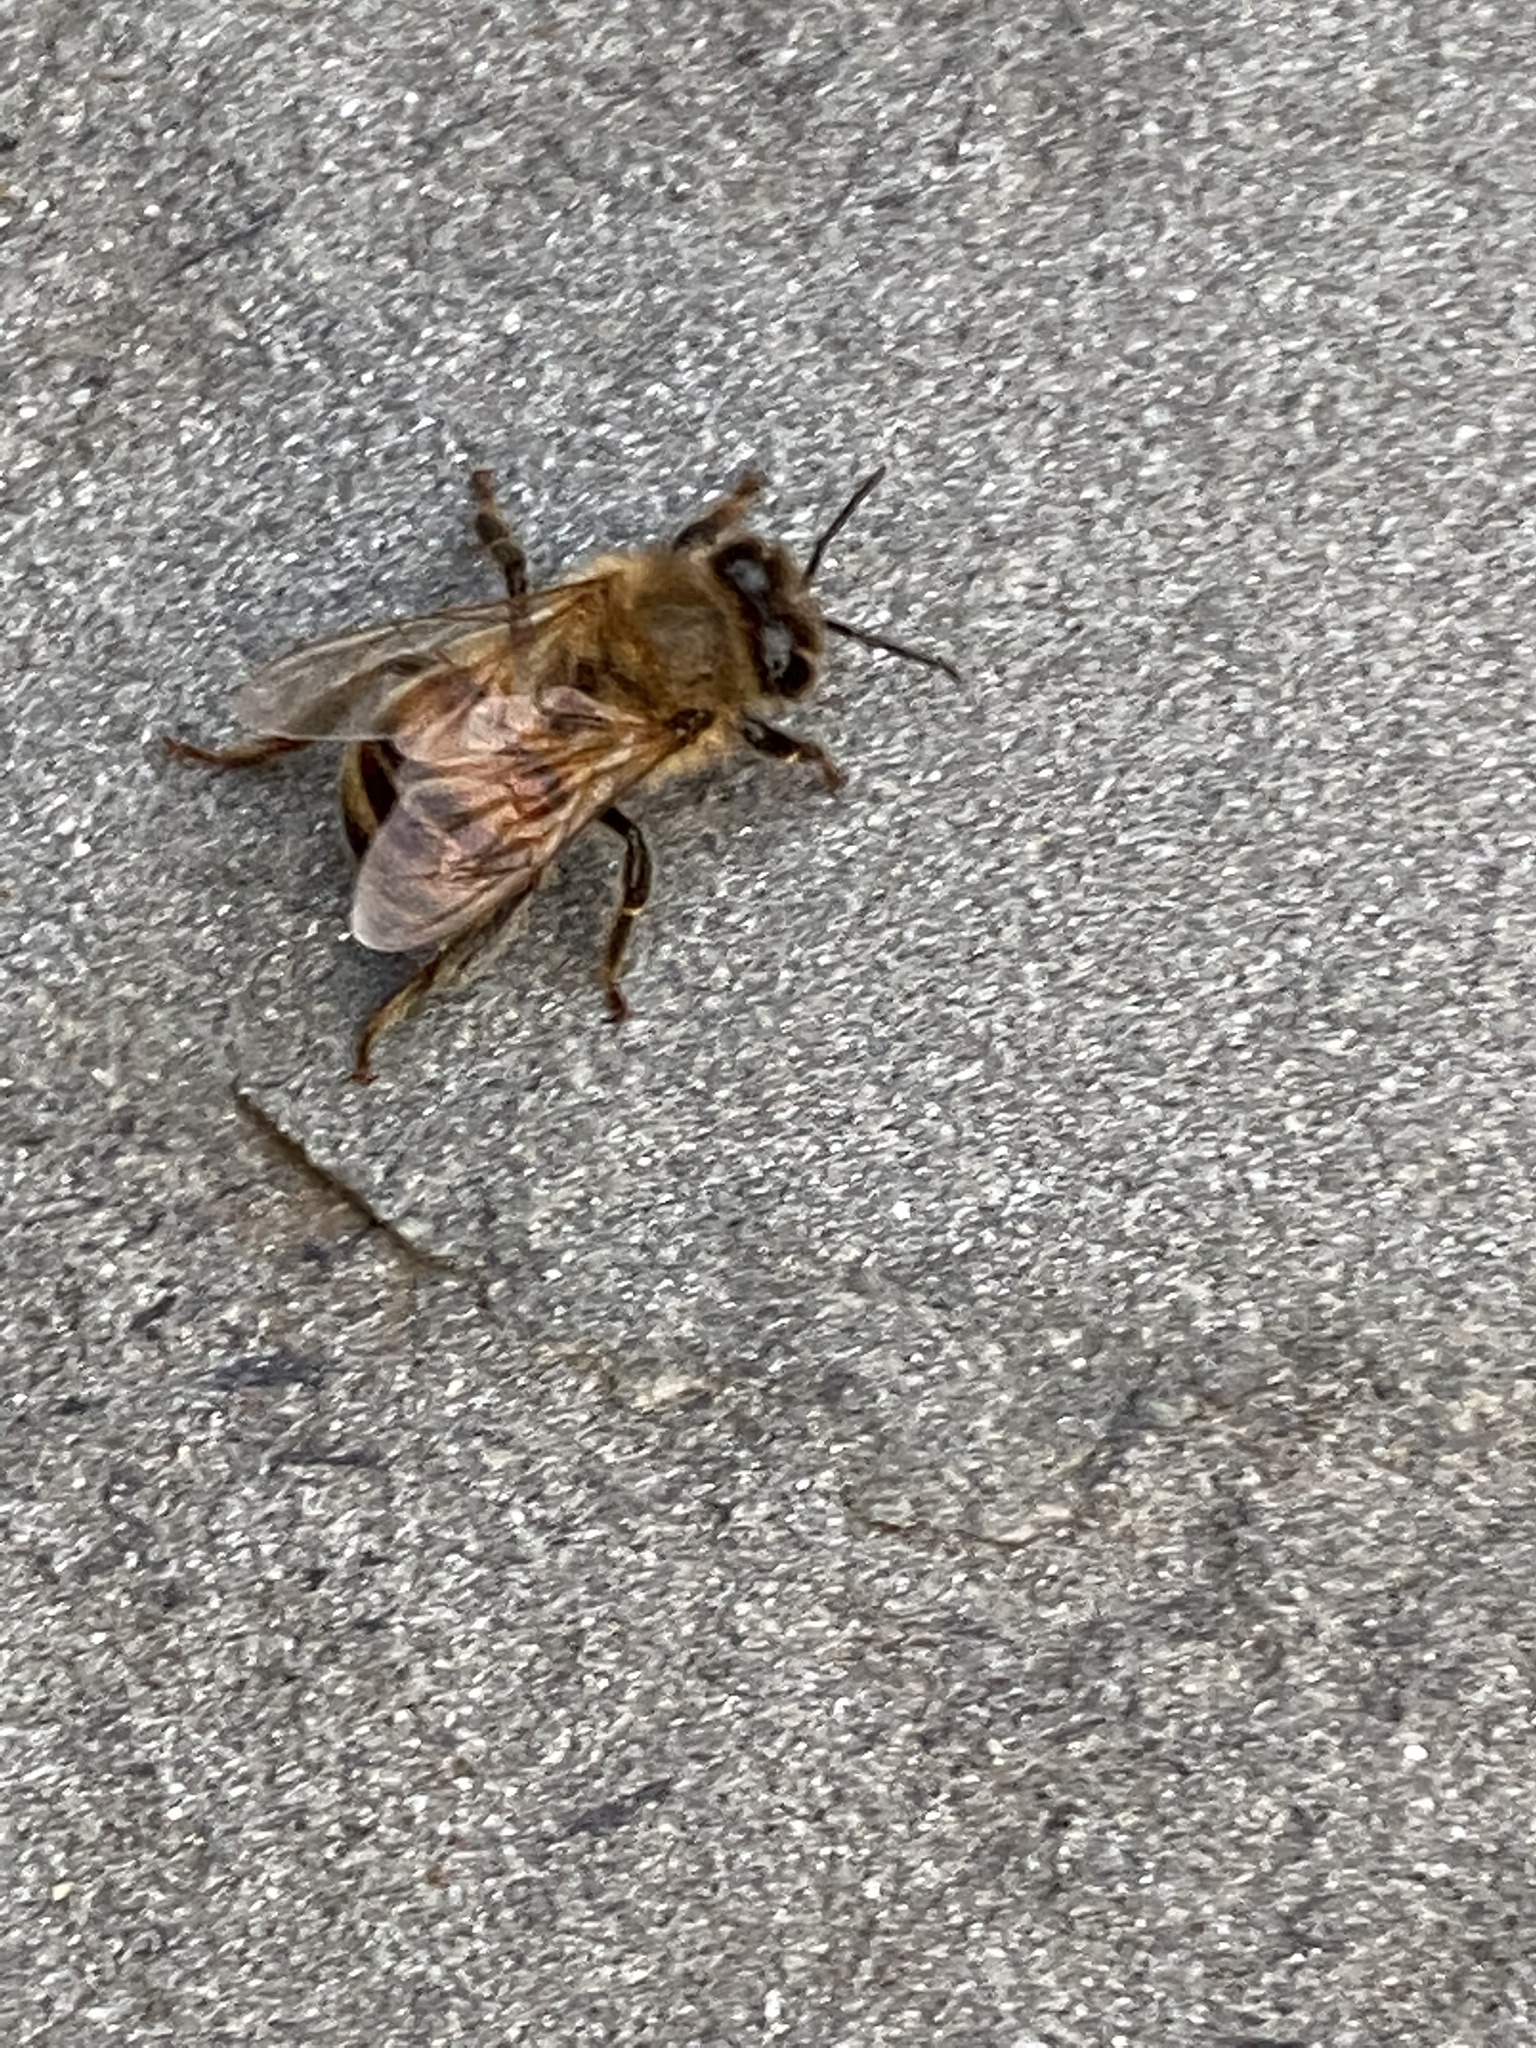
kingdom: Animalia
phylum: Arthropoda
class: Insecta
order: Hymenoptera
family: Apidae
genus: Apis
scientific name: Apis mellifera
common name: Honey bee
